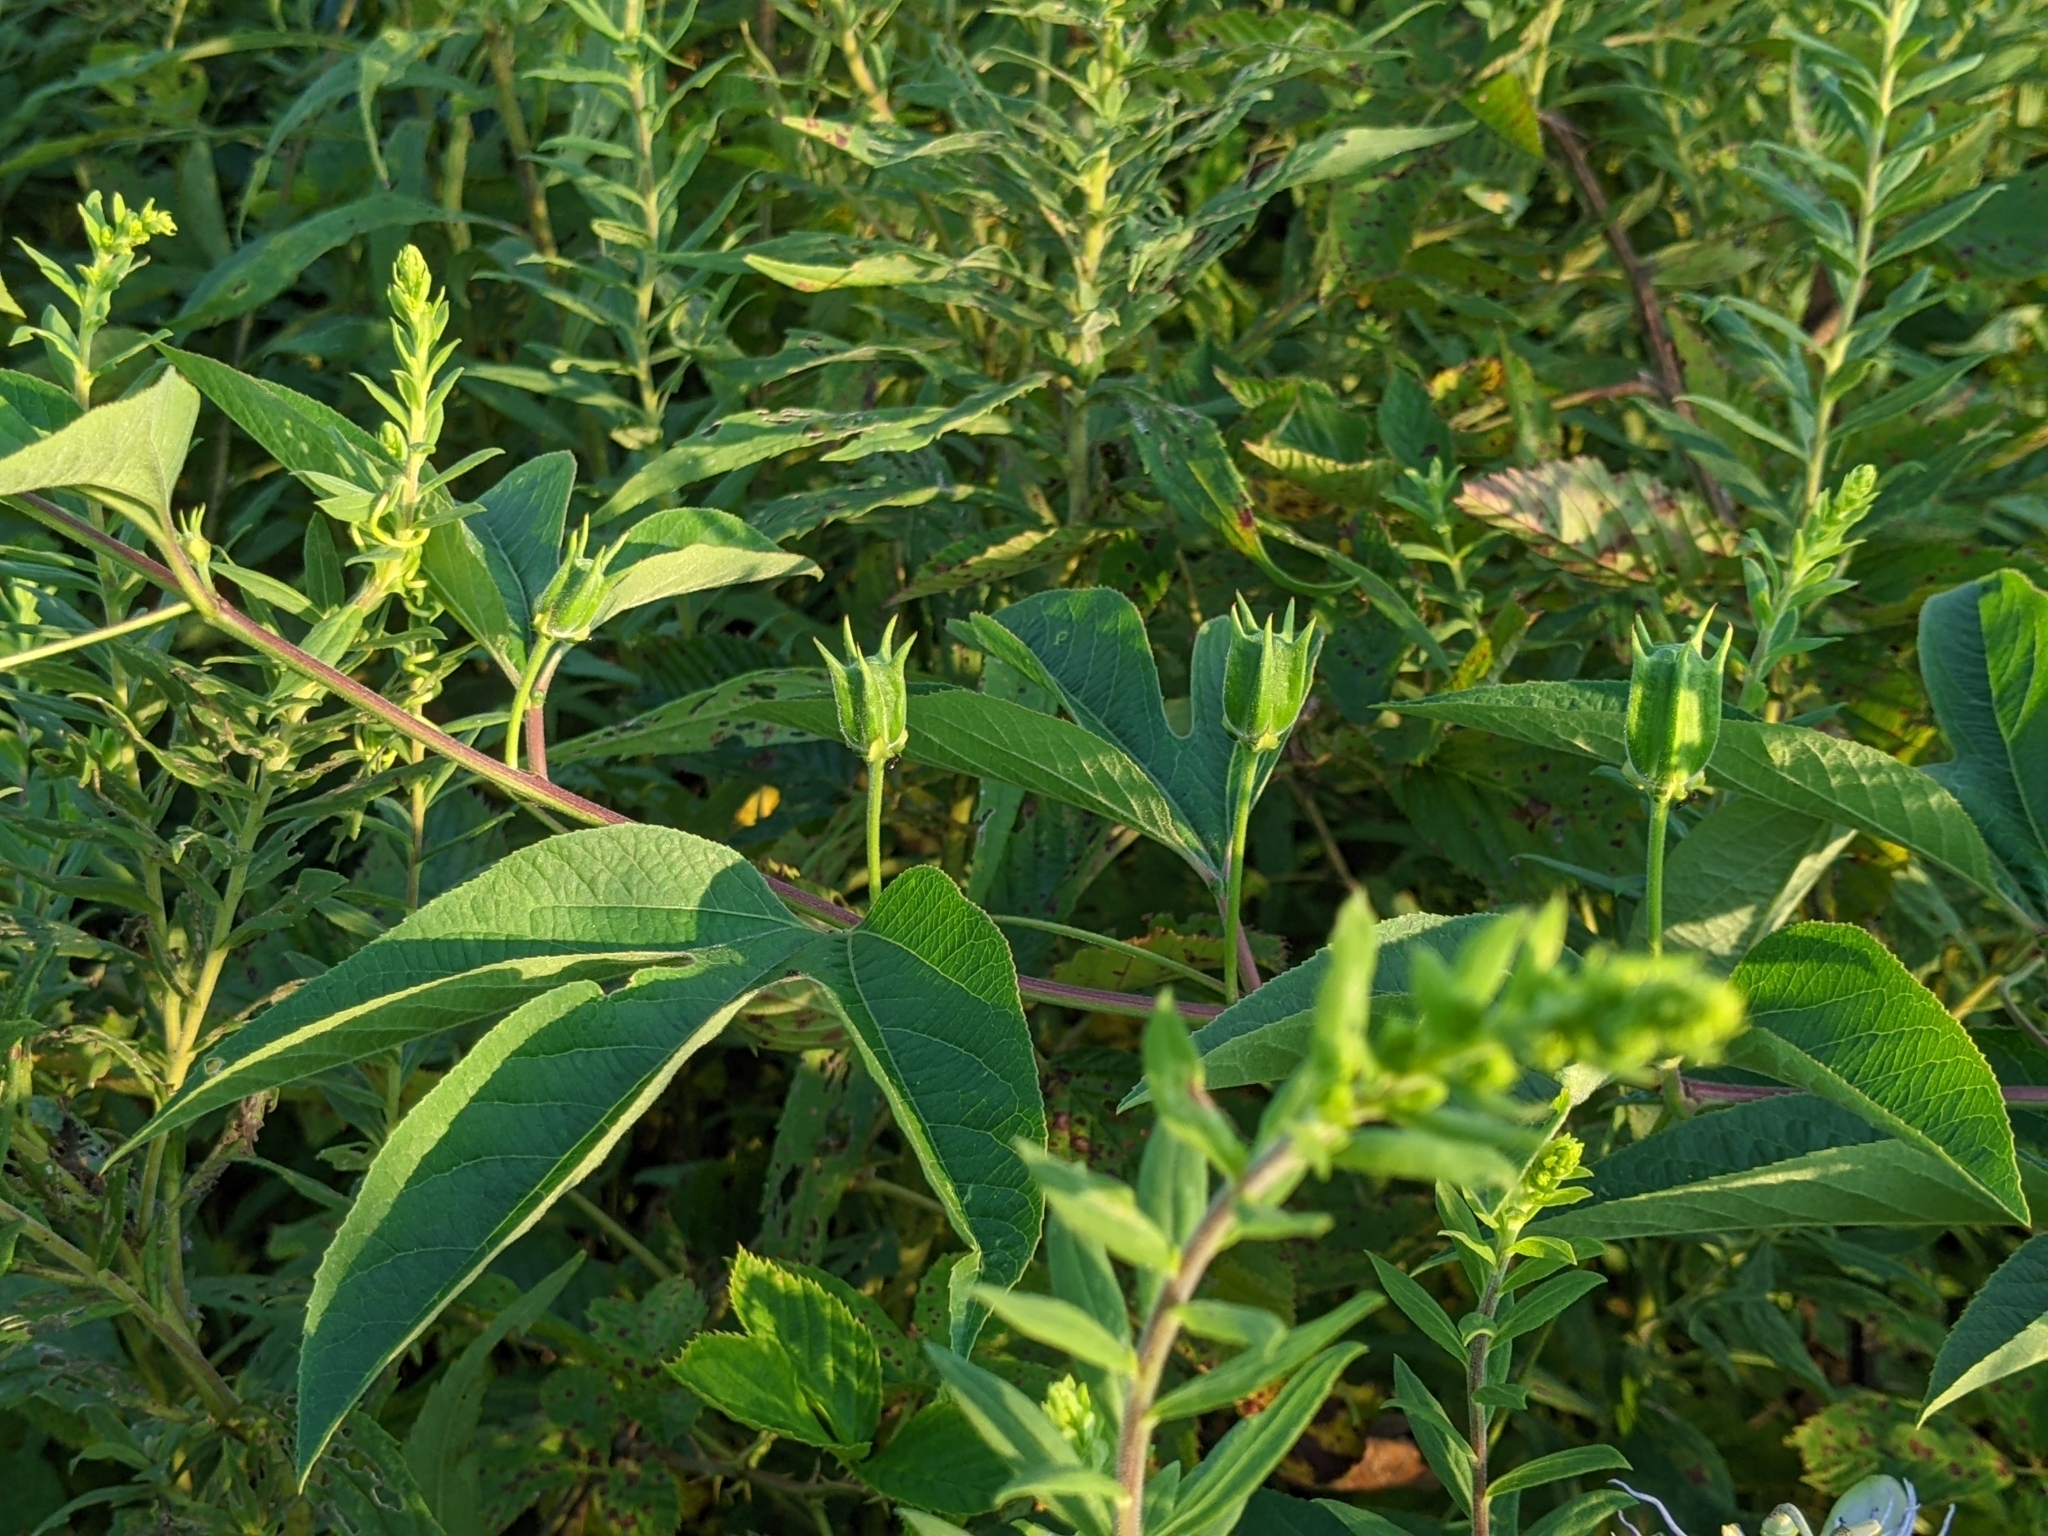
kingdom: Plantae
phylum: Tracheophyta
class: Magnoliopsida
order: Malpighiales
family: Passifloraceae
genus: Passiflora
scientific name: Passiflora incarnata
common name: Apricot-vine
